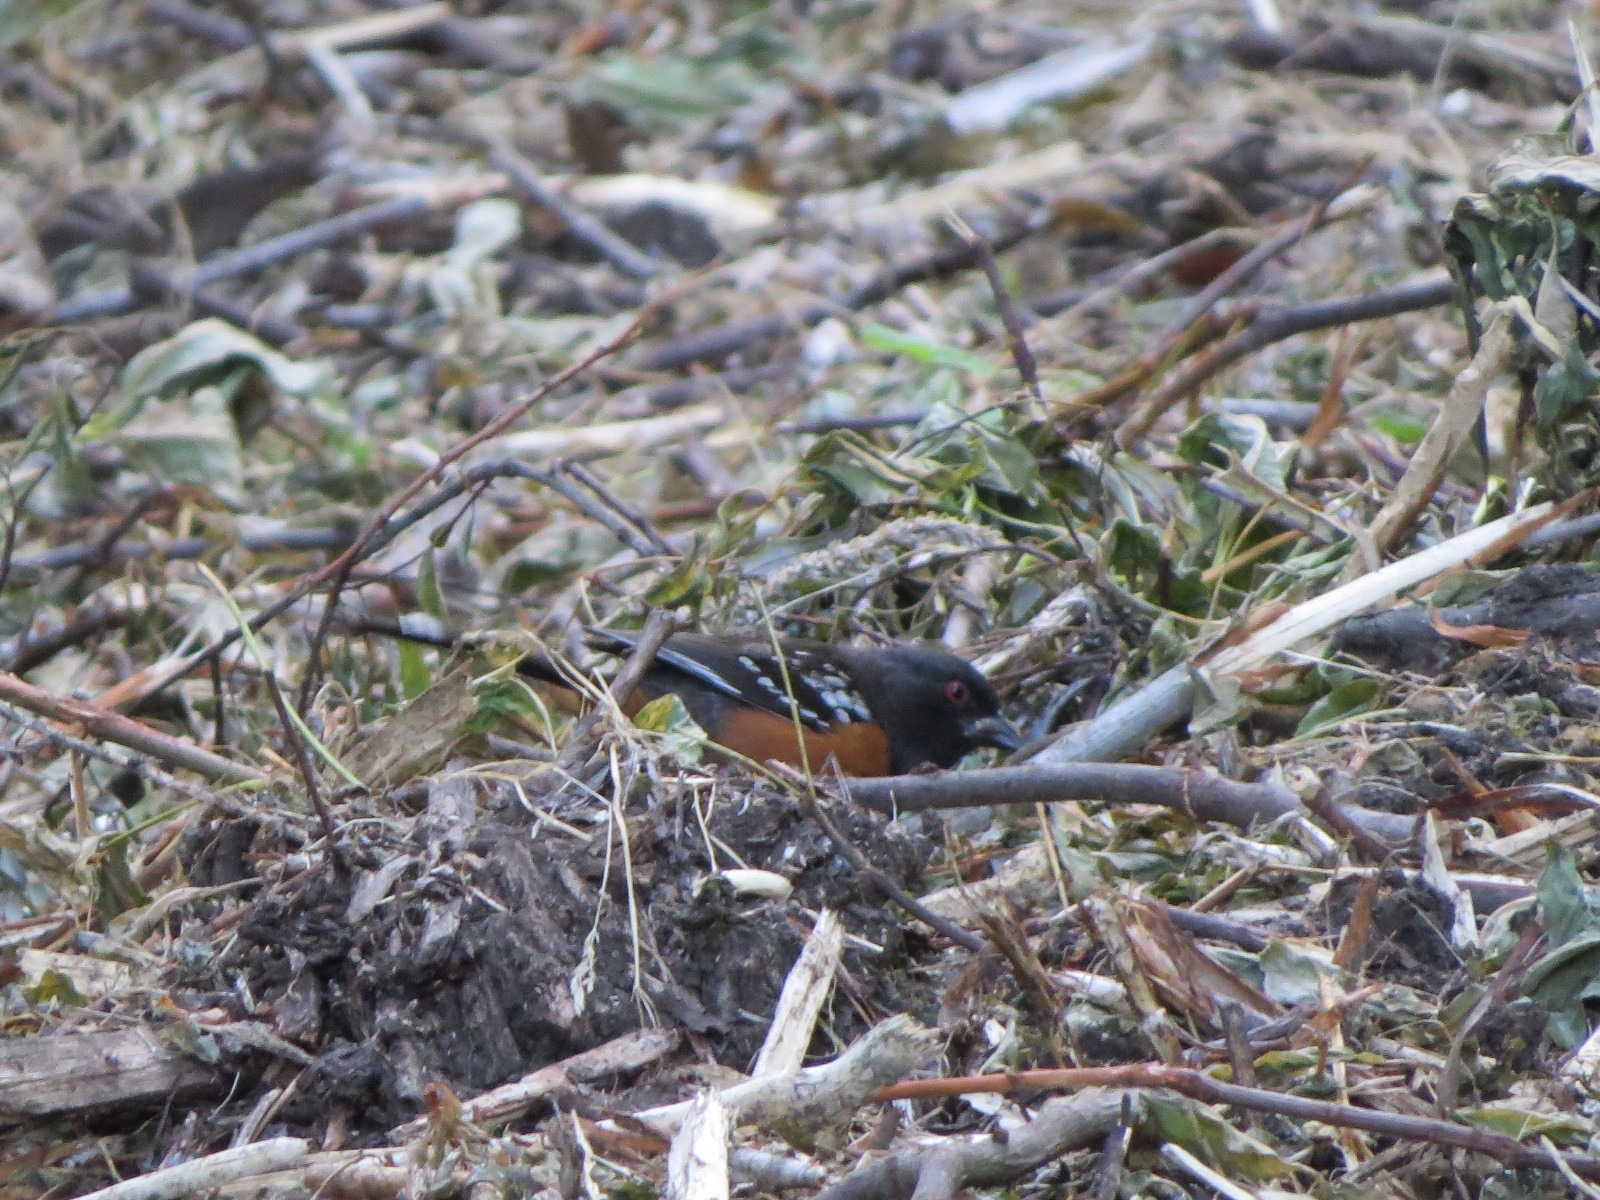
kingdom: Animalia
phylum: Chordata
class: Aves
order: Passeriformes
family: Passerellidae
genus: Pipilo
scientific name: Pipilo maculatus
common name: Spotted towhee
